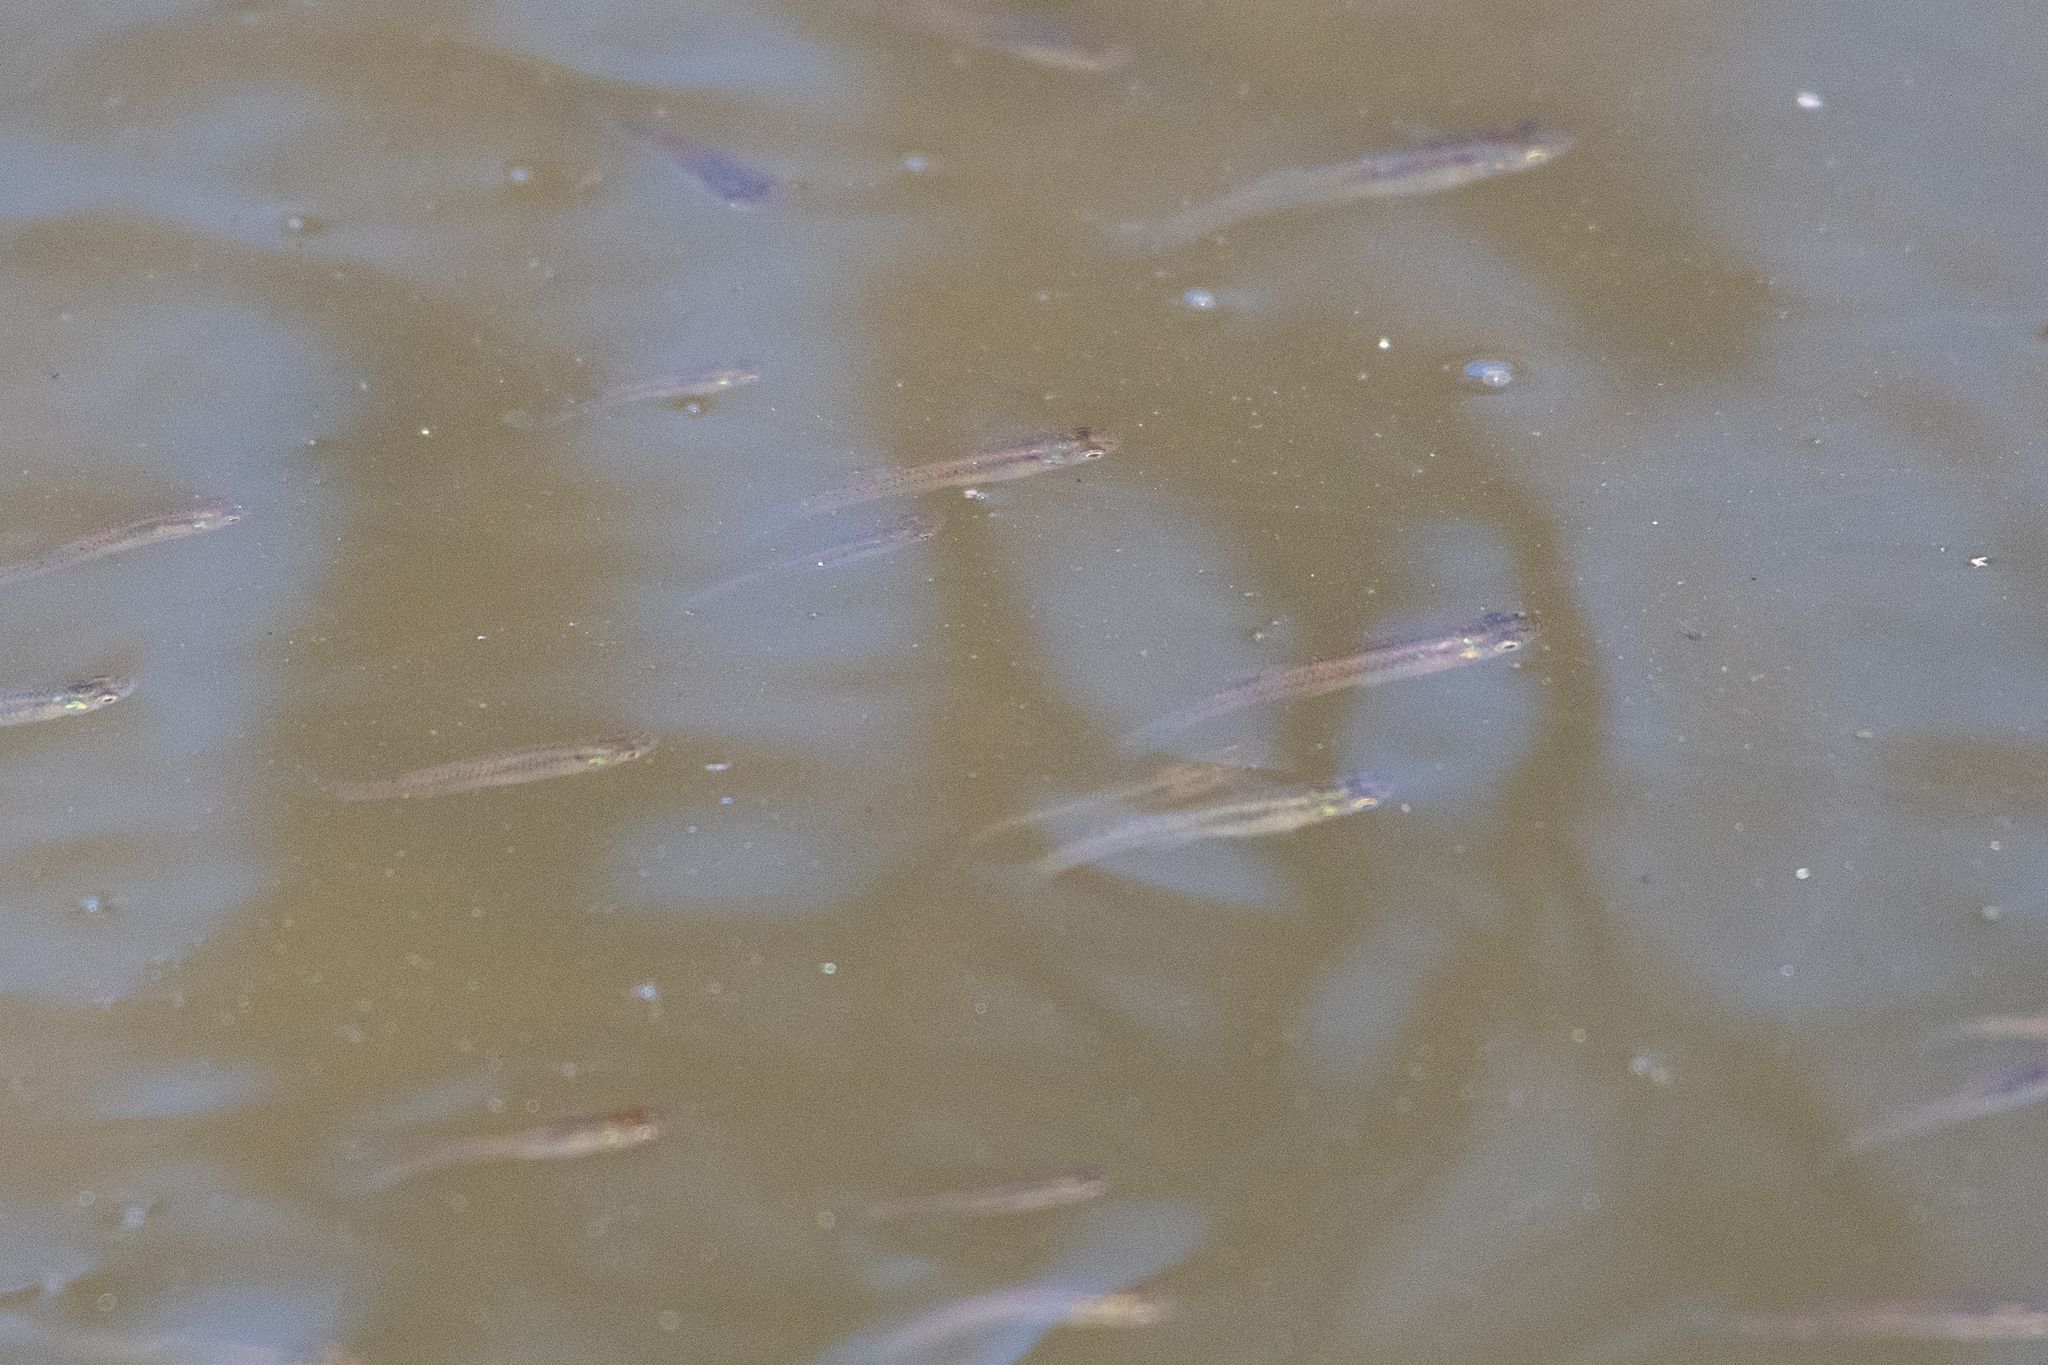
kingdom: Animalia
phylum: Chordata
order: Cyprinodontiformes
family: Poeciliidae
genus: Gambusia
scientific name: Gambusia affinis
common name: Mosquitofish
